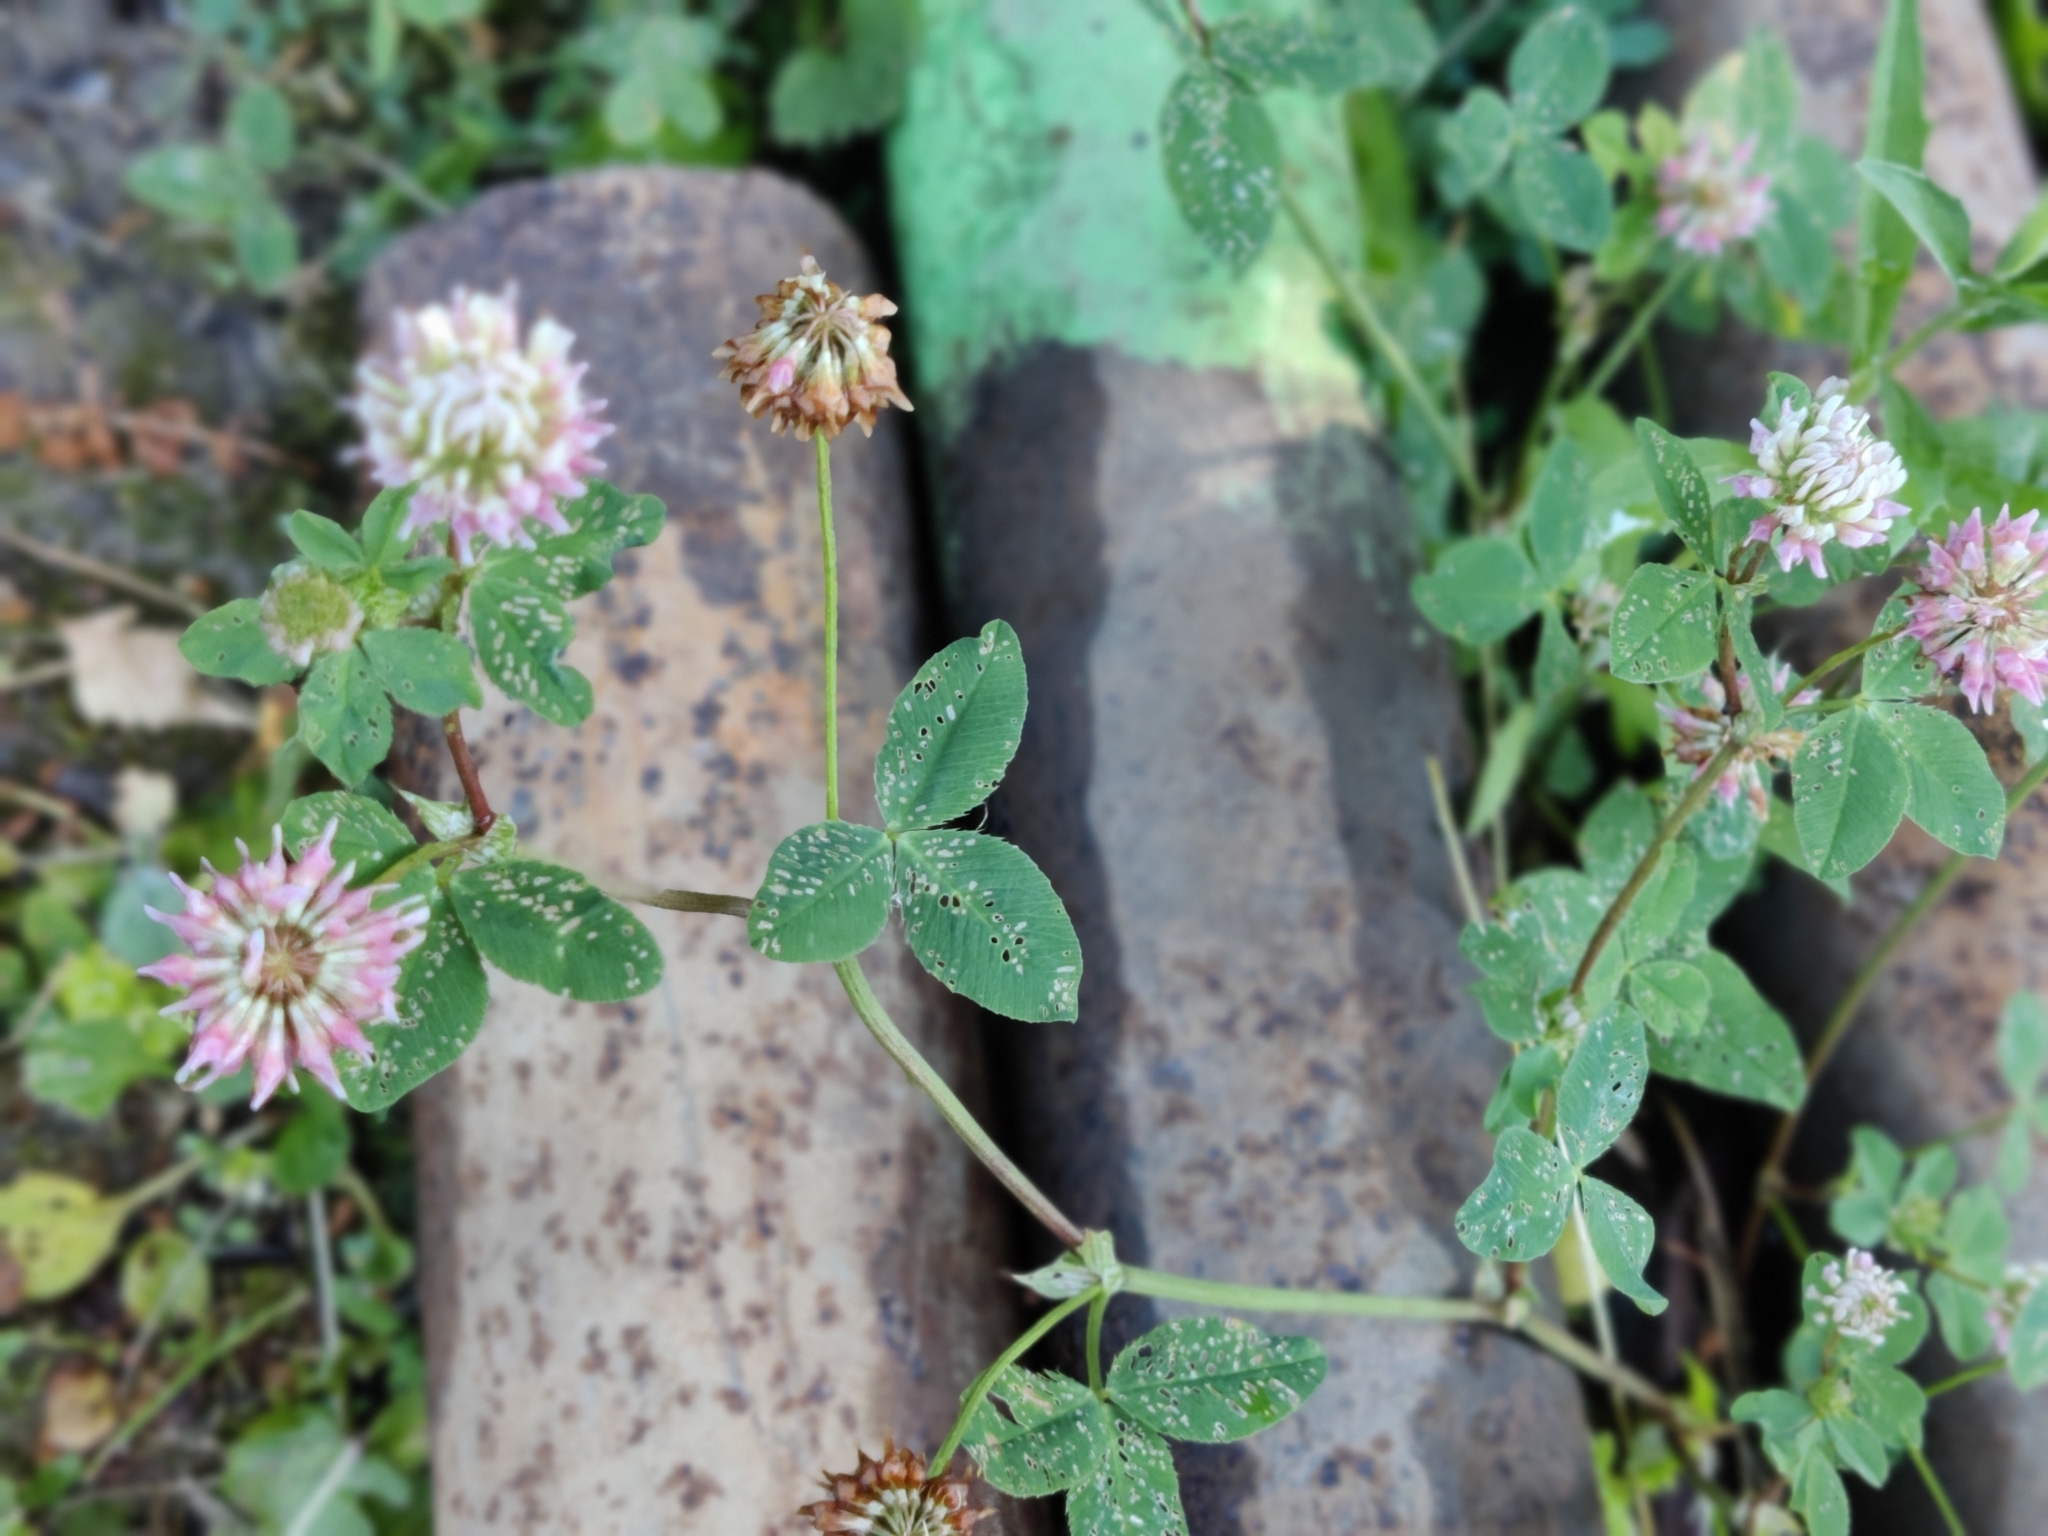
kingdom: Plantae
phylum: Tracheophyta
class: Magnoliopsida
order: Fabales
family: Fabaceae
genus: Trifolium
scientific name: Trifolium hybridum
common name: Alsike clover
